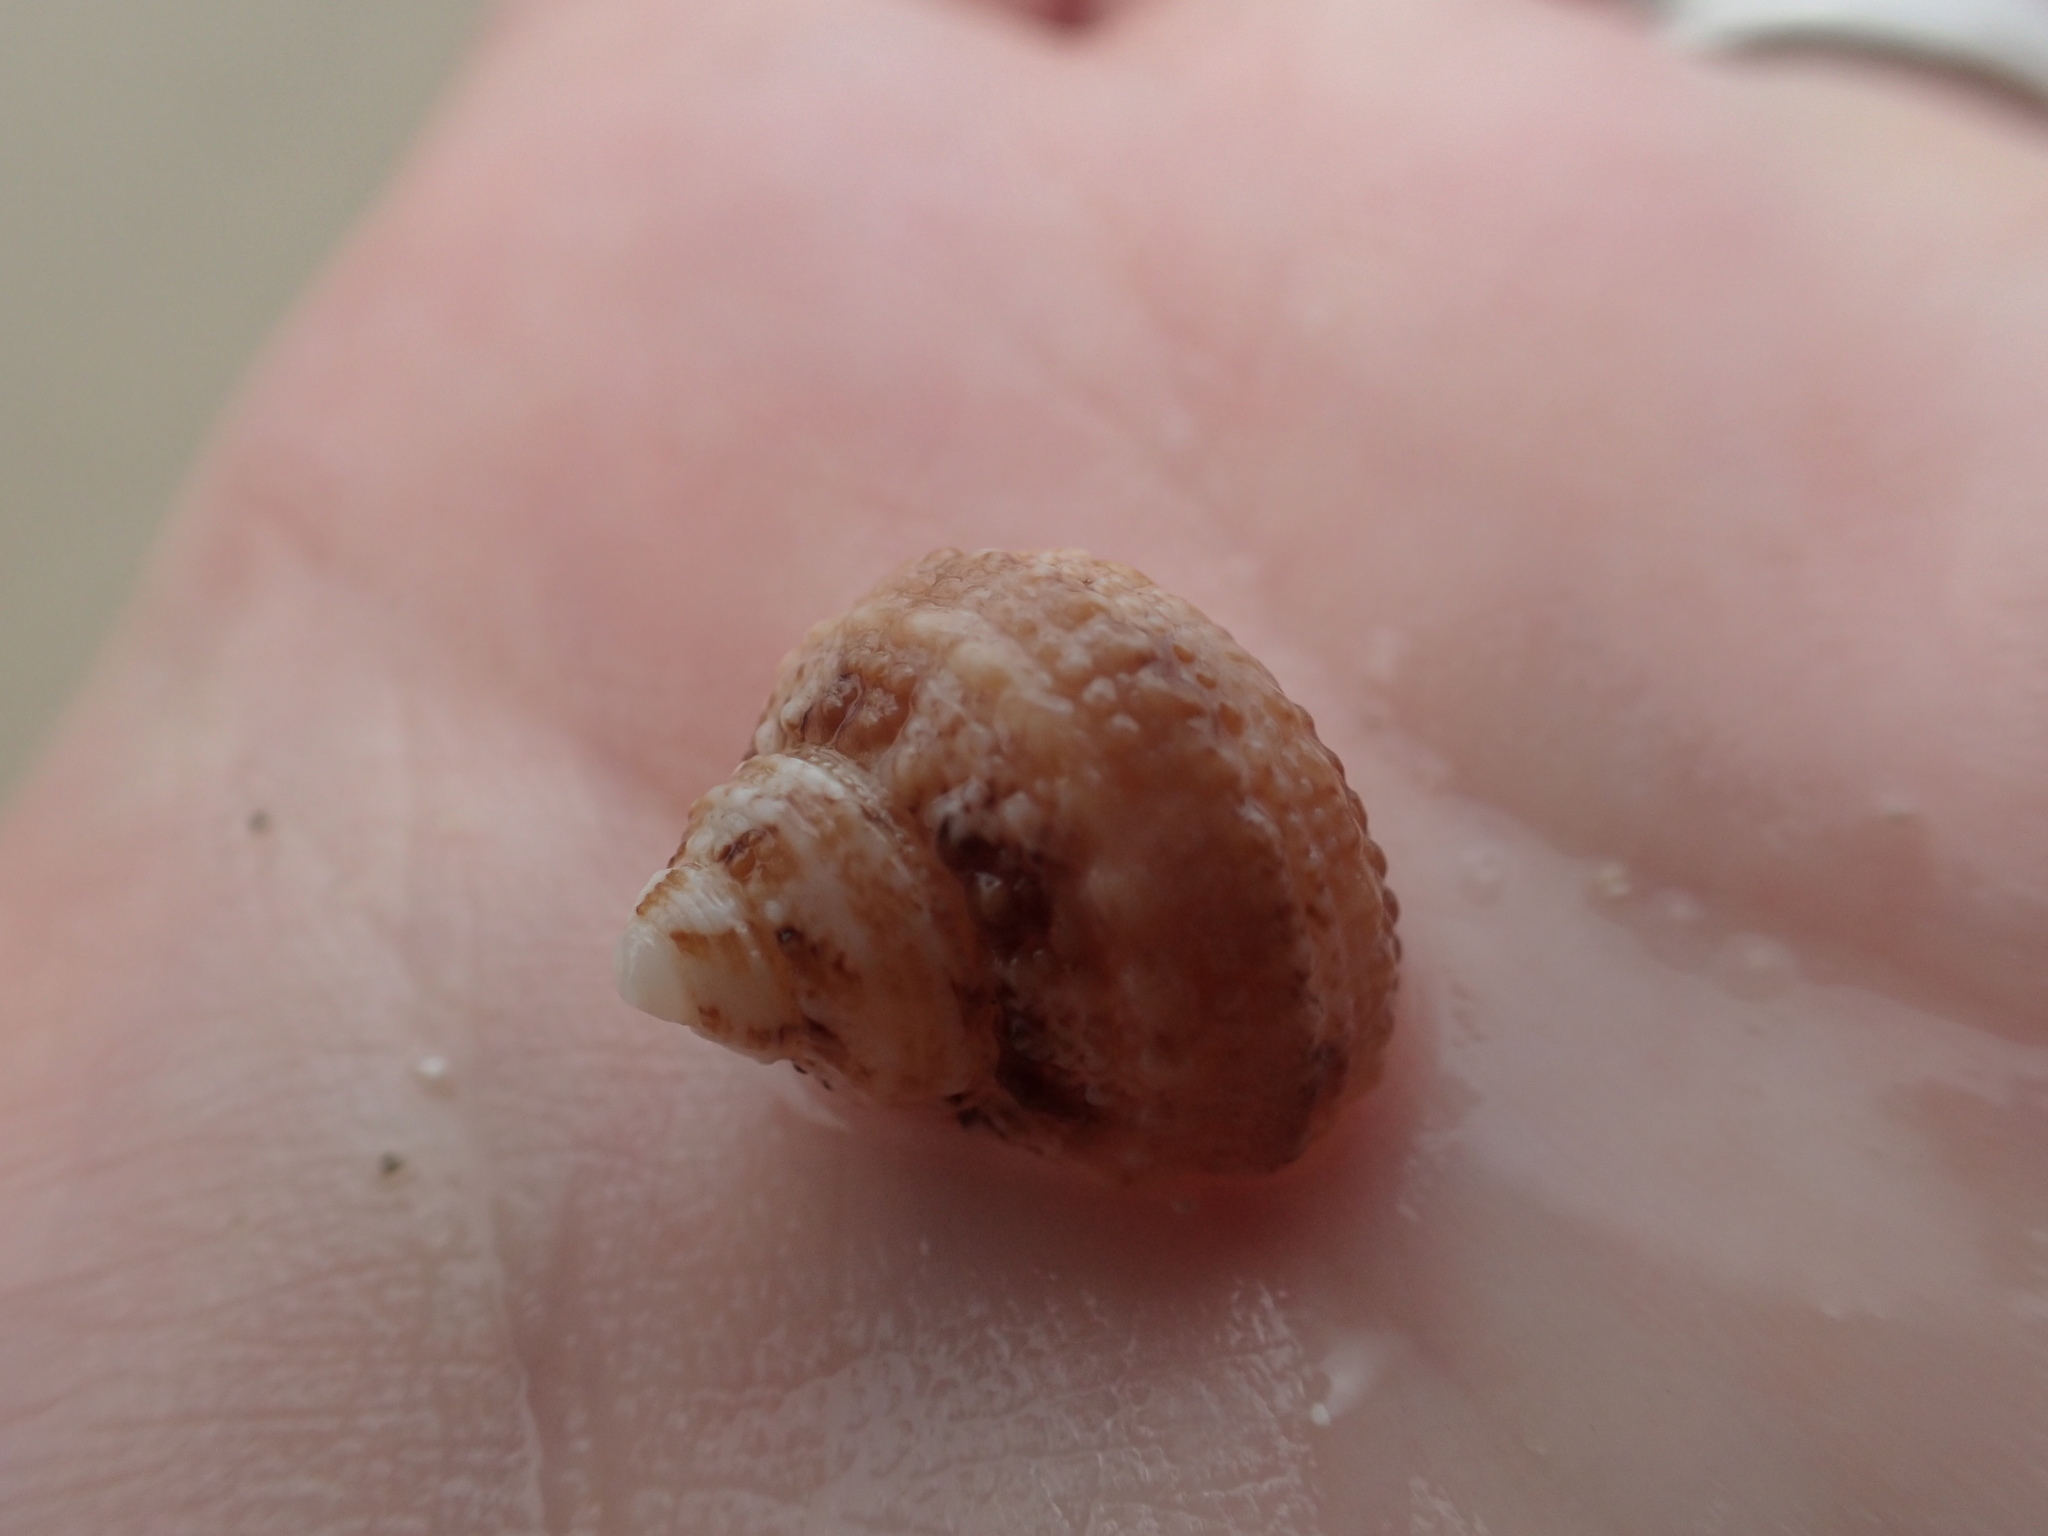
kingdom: Animalia
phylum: Mollusca
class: Gastropoda
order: Trochida
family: Turbinidae
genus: Turbo
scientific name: Turbo castanea
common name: Chestnut turban
